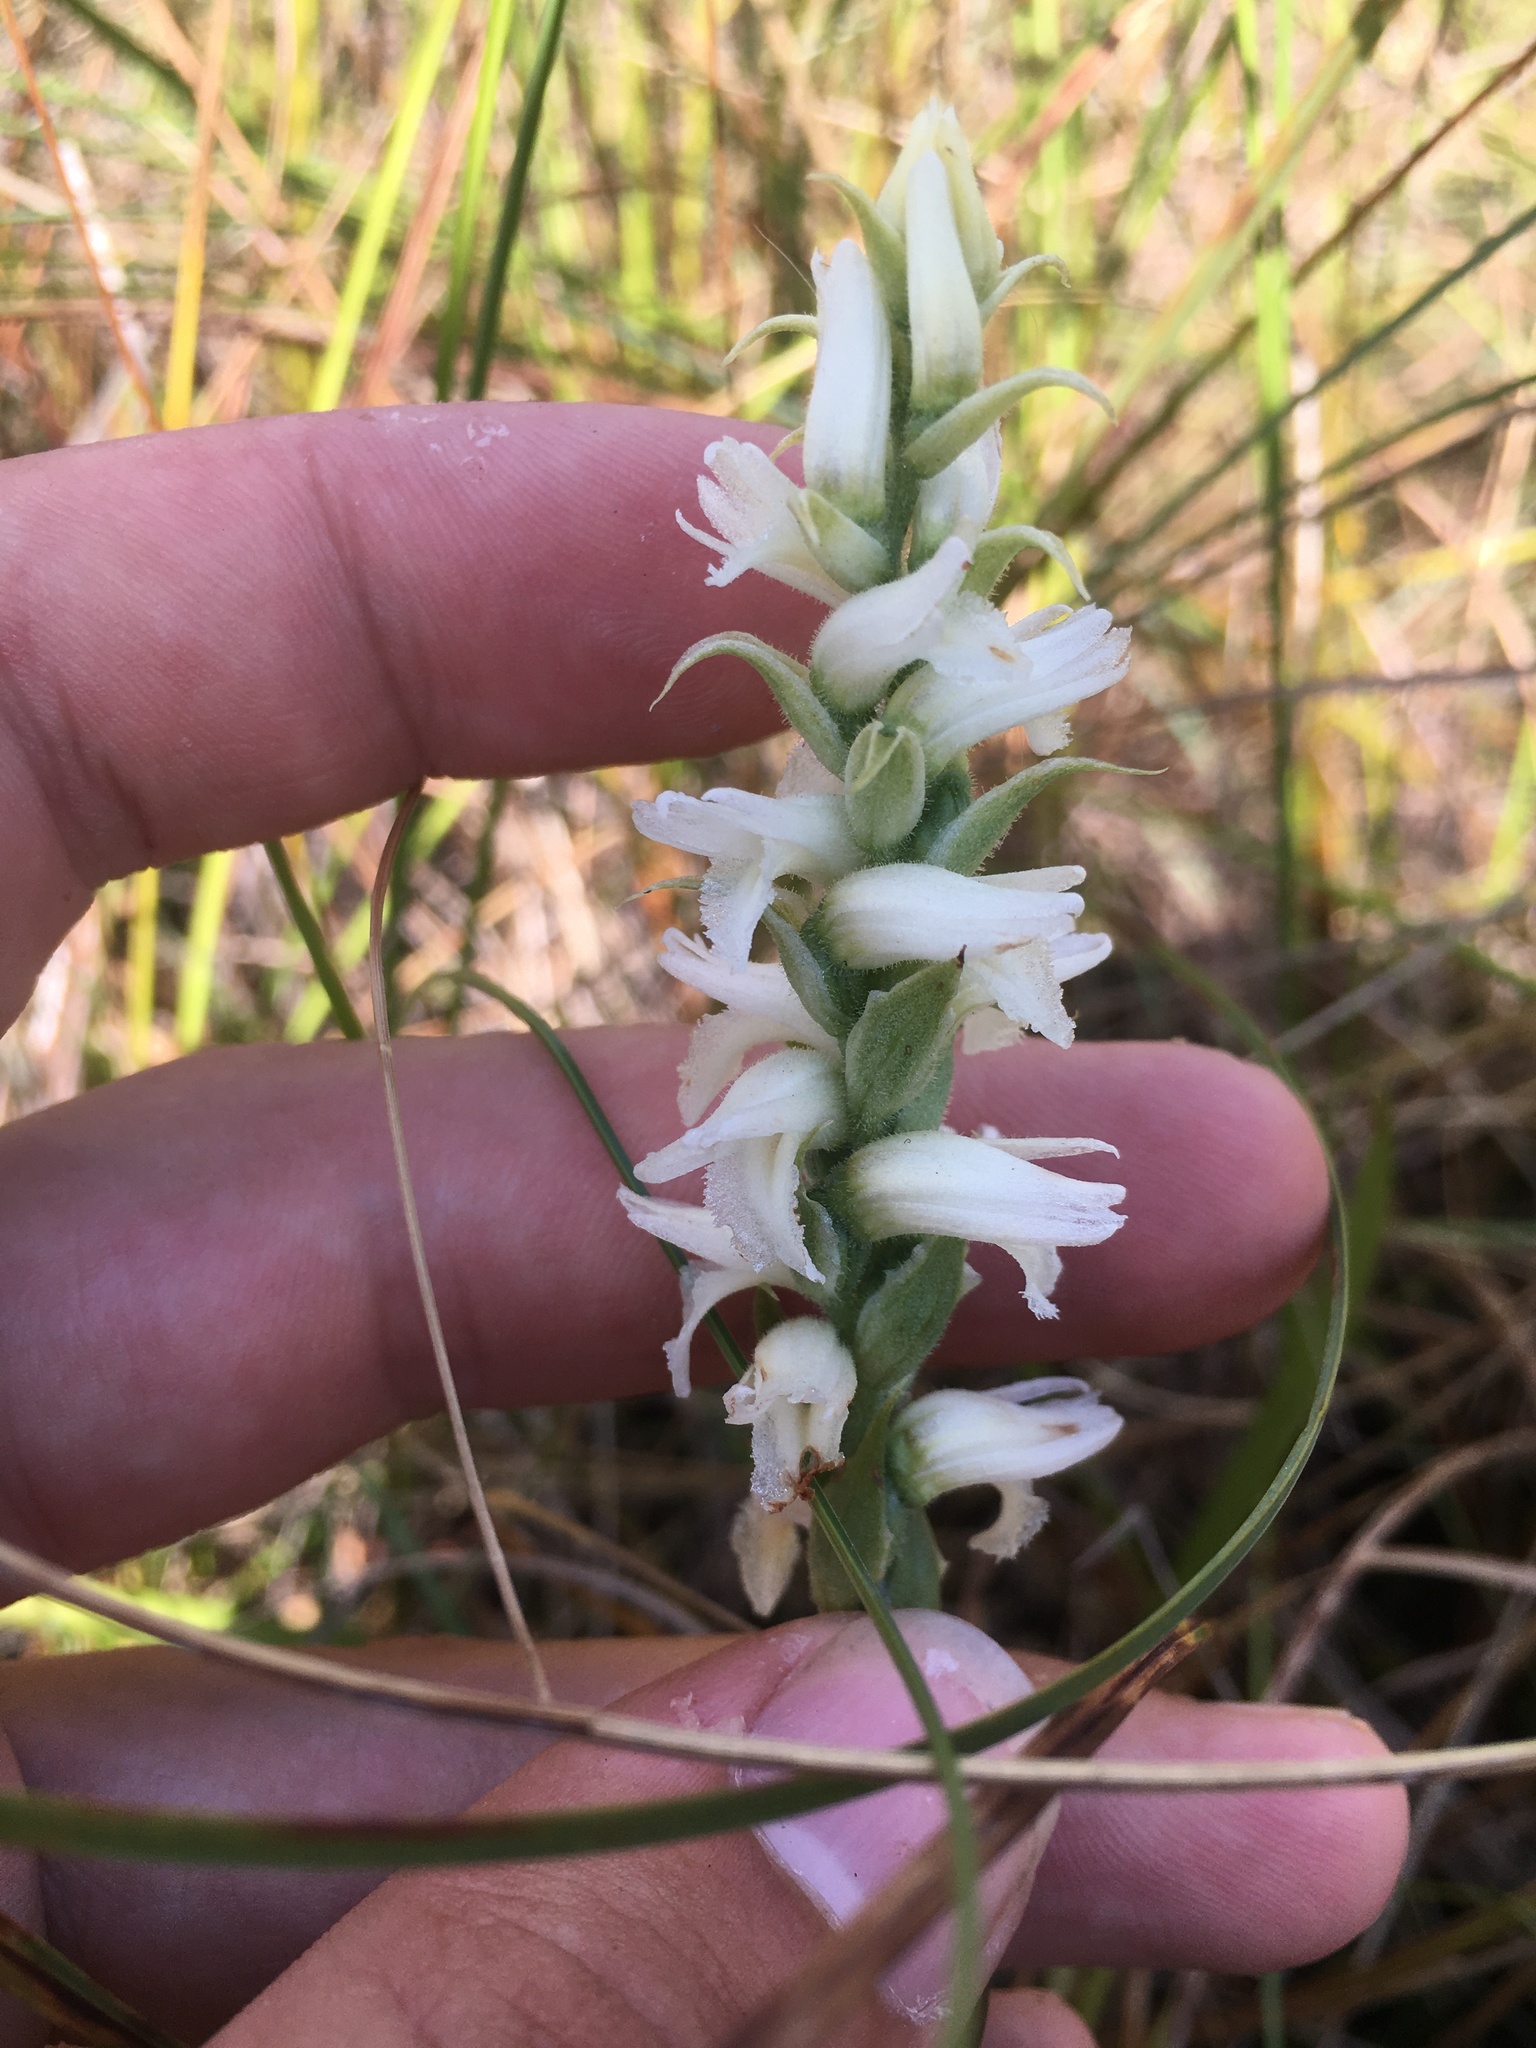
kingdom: Plantae
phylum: Tracheophyta
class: Liliopsida
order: Asparagales
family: Orchidaceae
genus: Spiranthes
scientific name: Spiranthes incurva
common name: Sphinx ladies'-tresses
